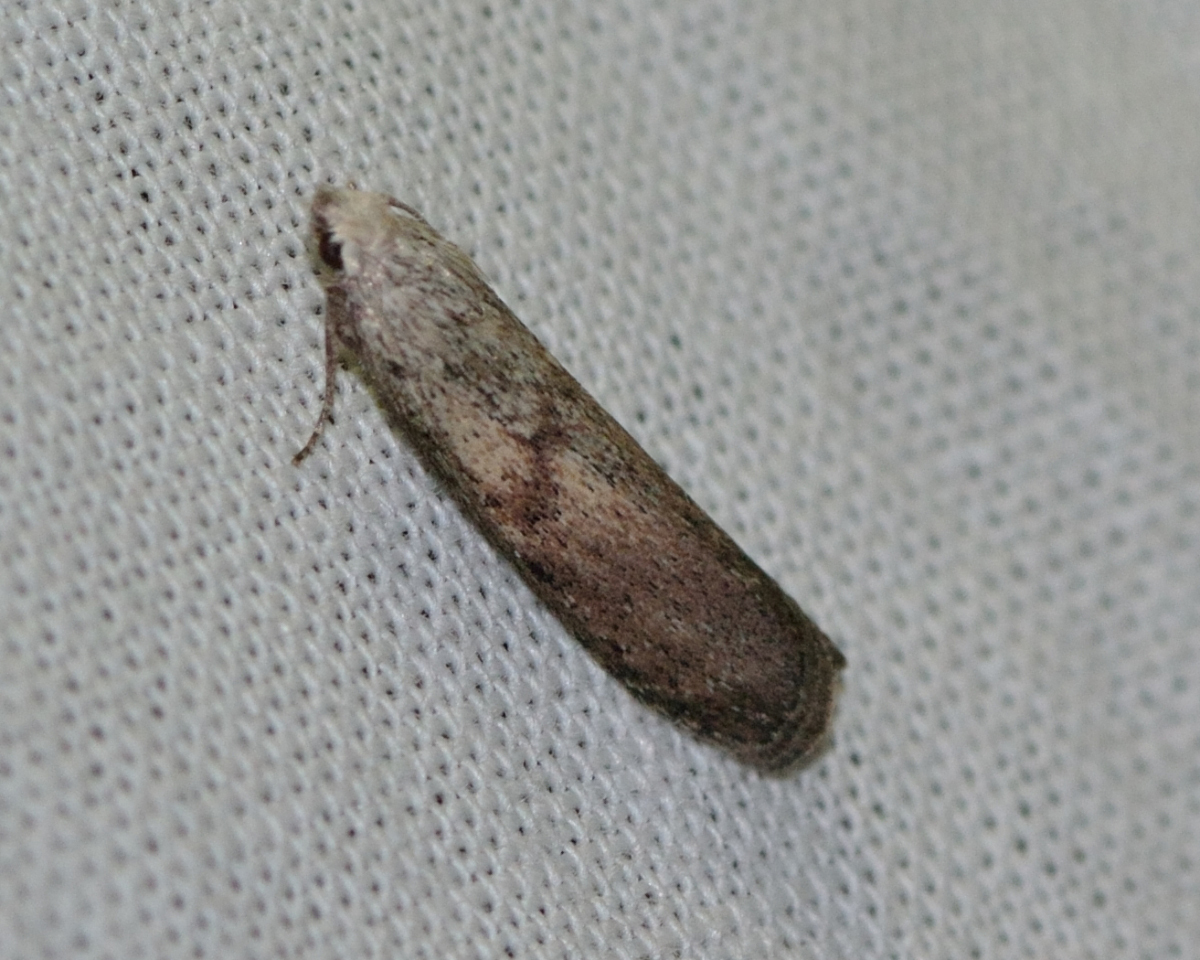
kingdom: Animalia
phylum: Arthropoda
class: Insecta
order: Lepidoptera
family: Pyralidae
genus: Aphomia
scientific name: Aphomia sociella
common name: Bee moth
